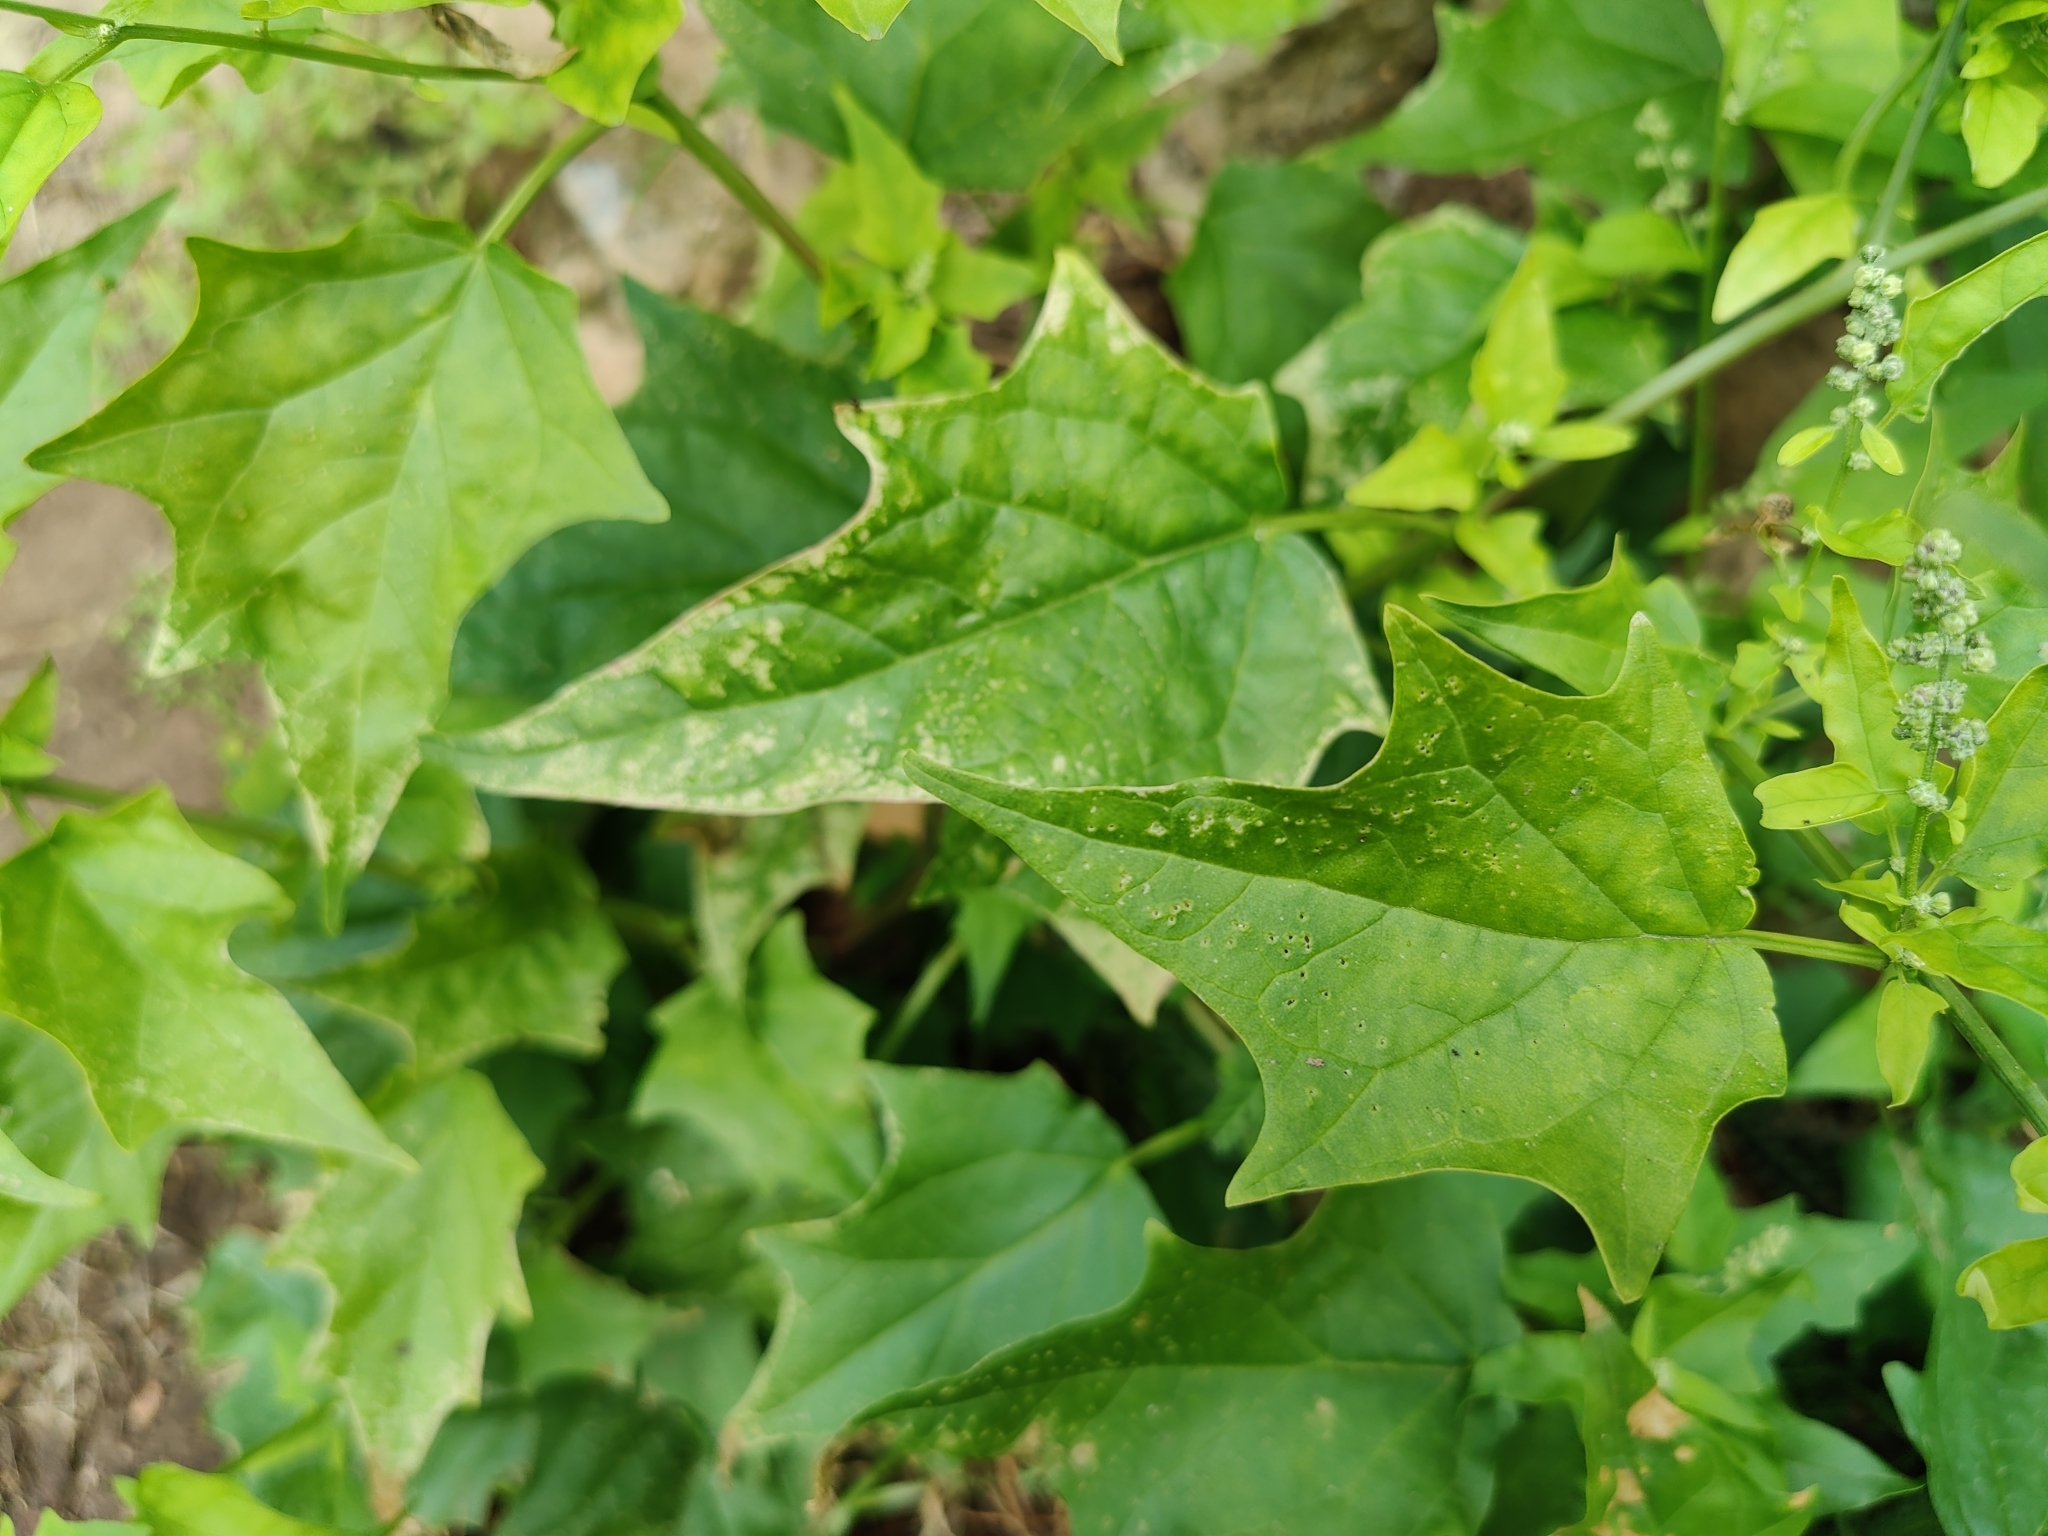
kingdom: Plantae
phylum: Tracheophyta
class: Magnoliopsida
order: Caryophyllales
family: Amaranthaceae
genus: Chenopodiastrum
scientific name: Chenopodiastrum hybridum
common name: Mapleleaf goosefoot
